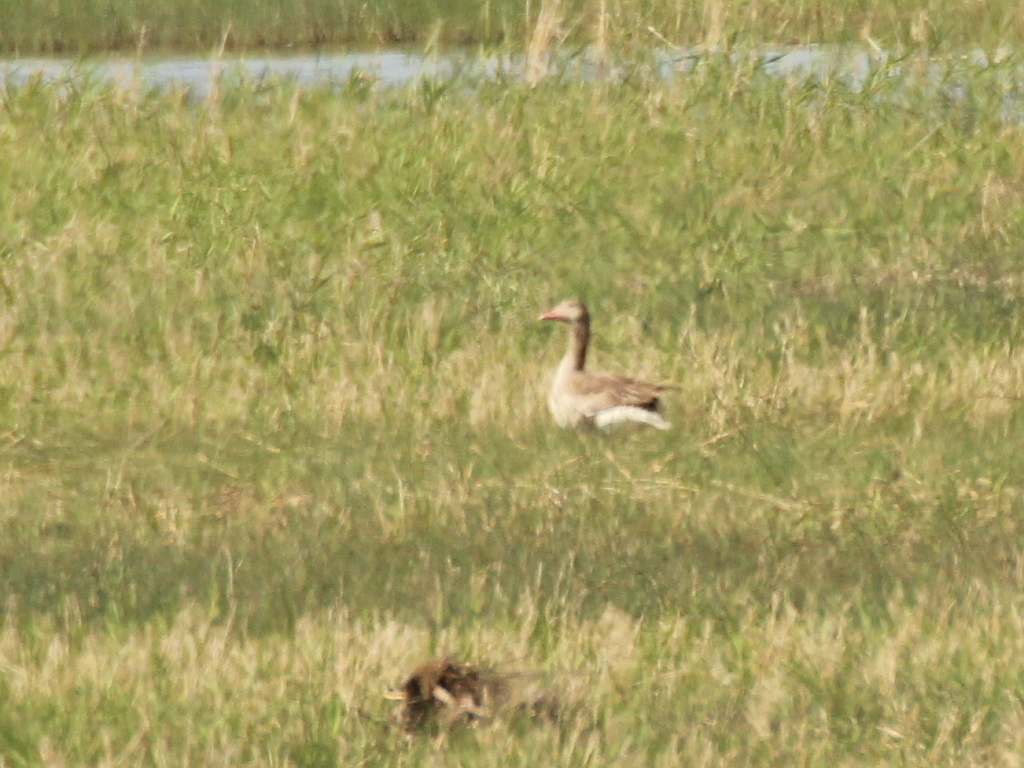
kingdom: Animalia
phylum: Chordata
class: Aves
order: Anseriformes
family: Anatidae
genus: Anser
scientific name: Anser anser
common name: Greylag goose
